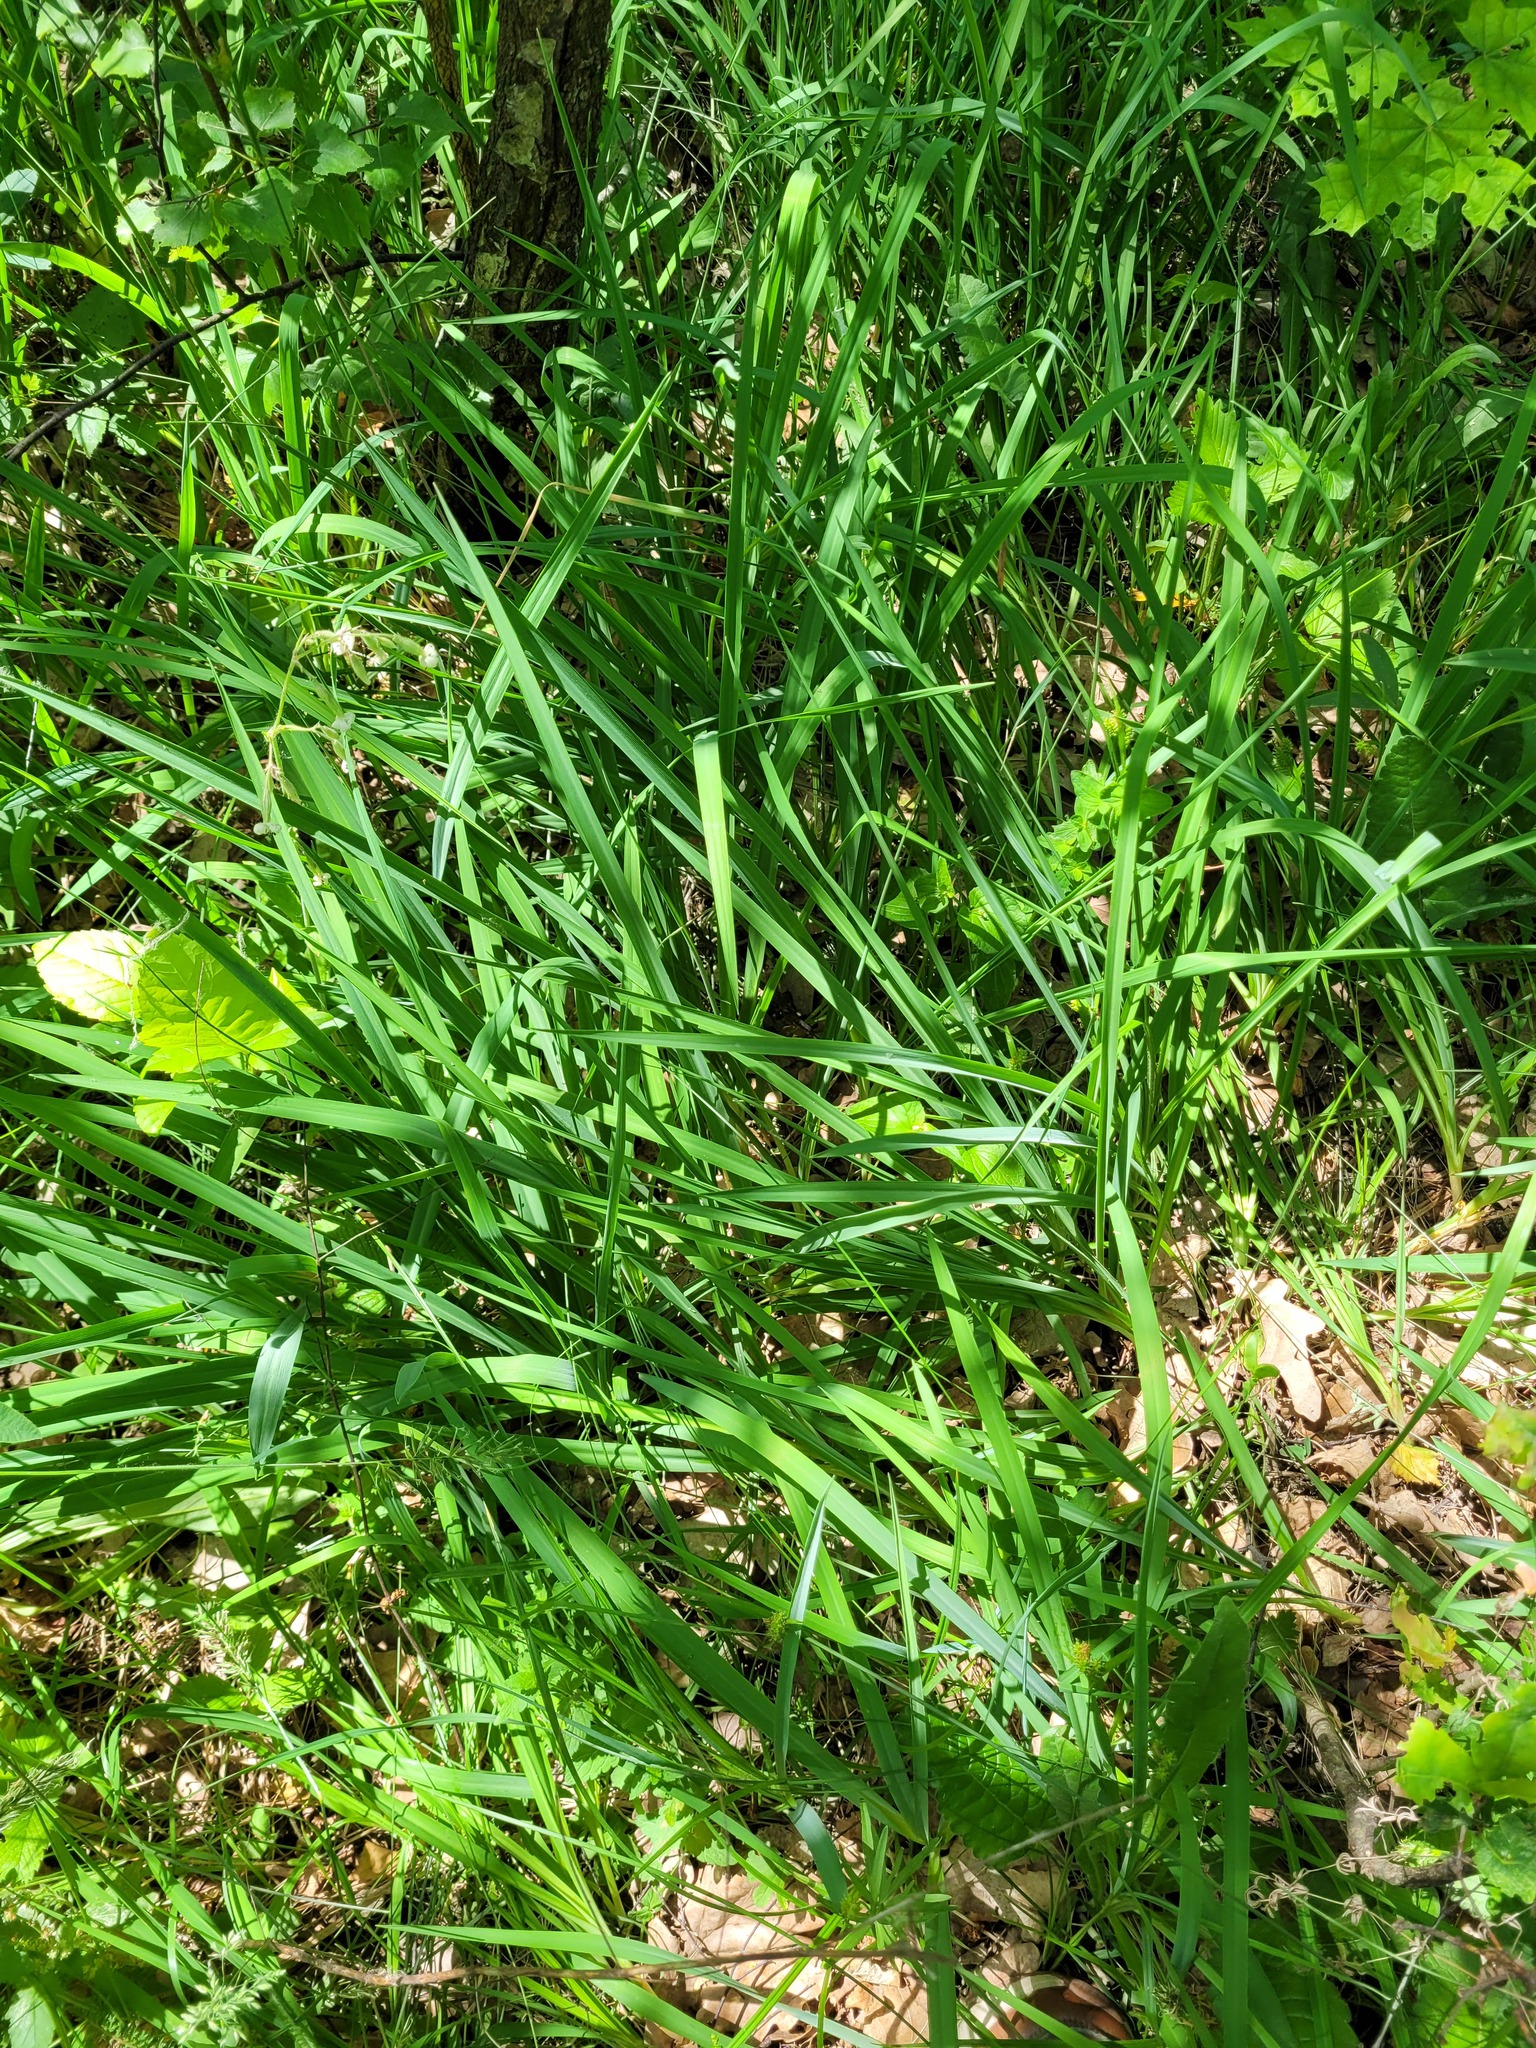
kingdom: Plantae
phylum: Tracheophyta
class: Liliopsida
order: Asparagales
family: Asparagaceae
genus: Anthericum
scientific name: Anthericum ramosum
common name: Branched st. bernard's-lily
